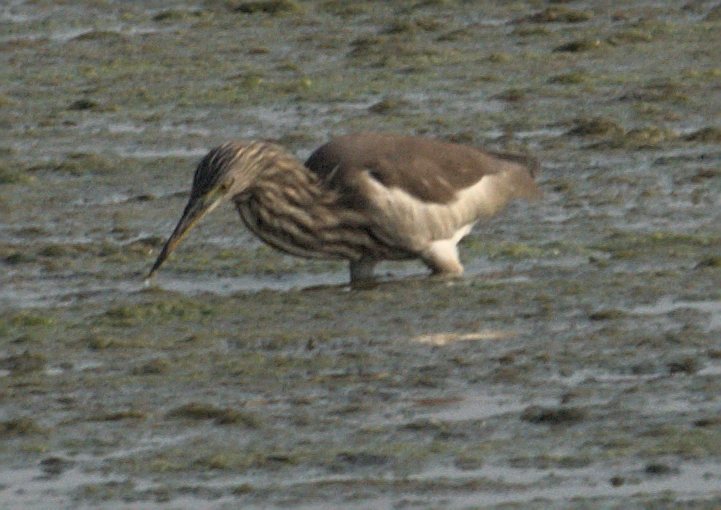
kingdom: Animalia
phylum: Chordata
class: Aves
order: Pelecaniformes
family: Ardeidae
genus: Ardeola
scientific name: Ardeola grayii
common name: Indian pond heron
